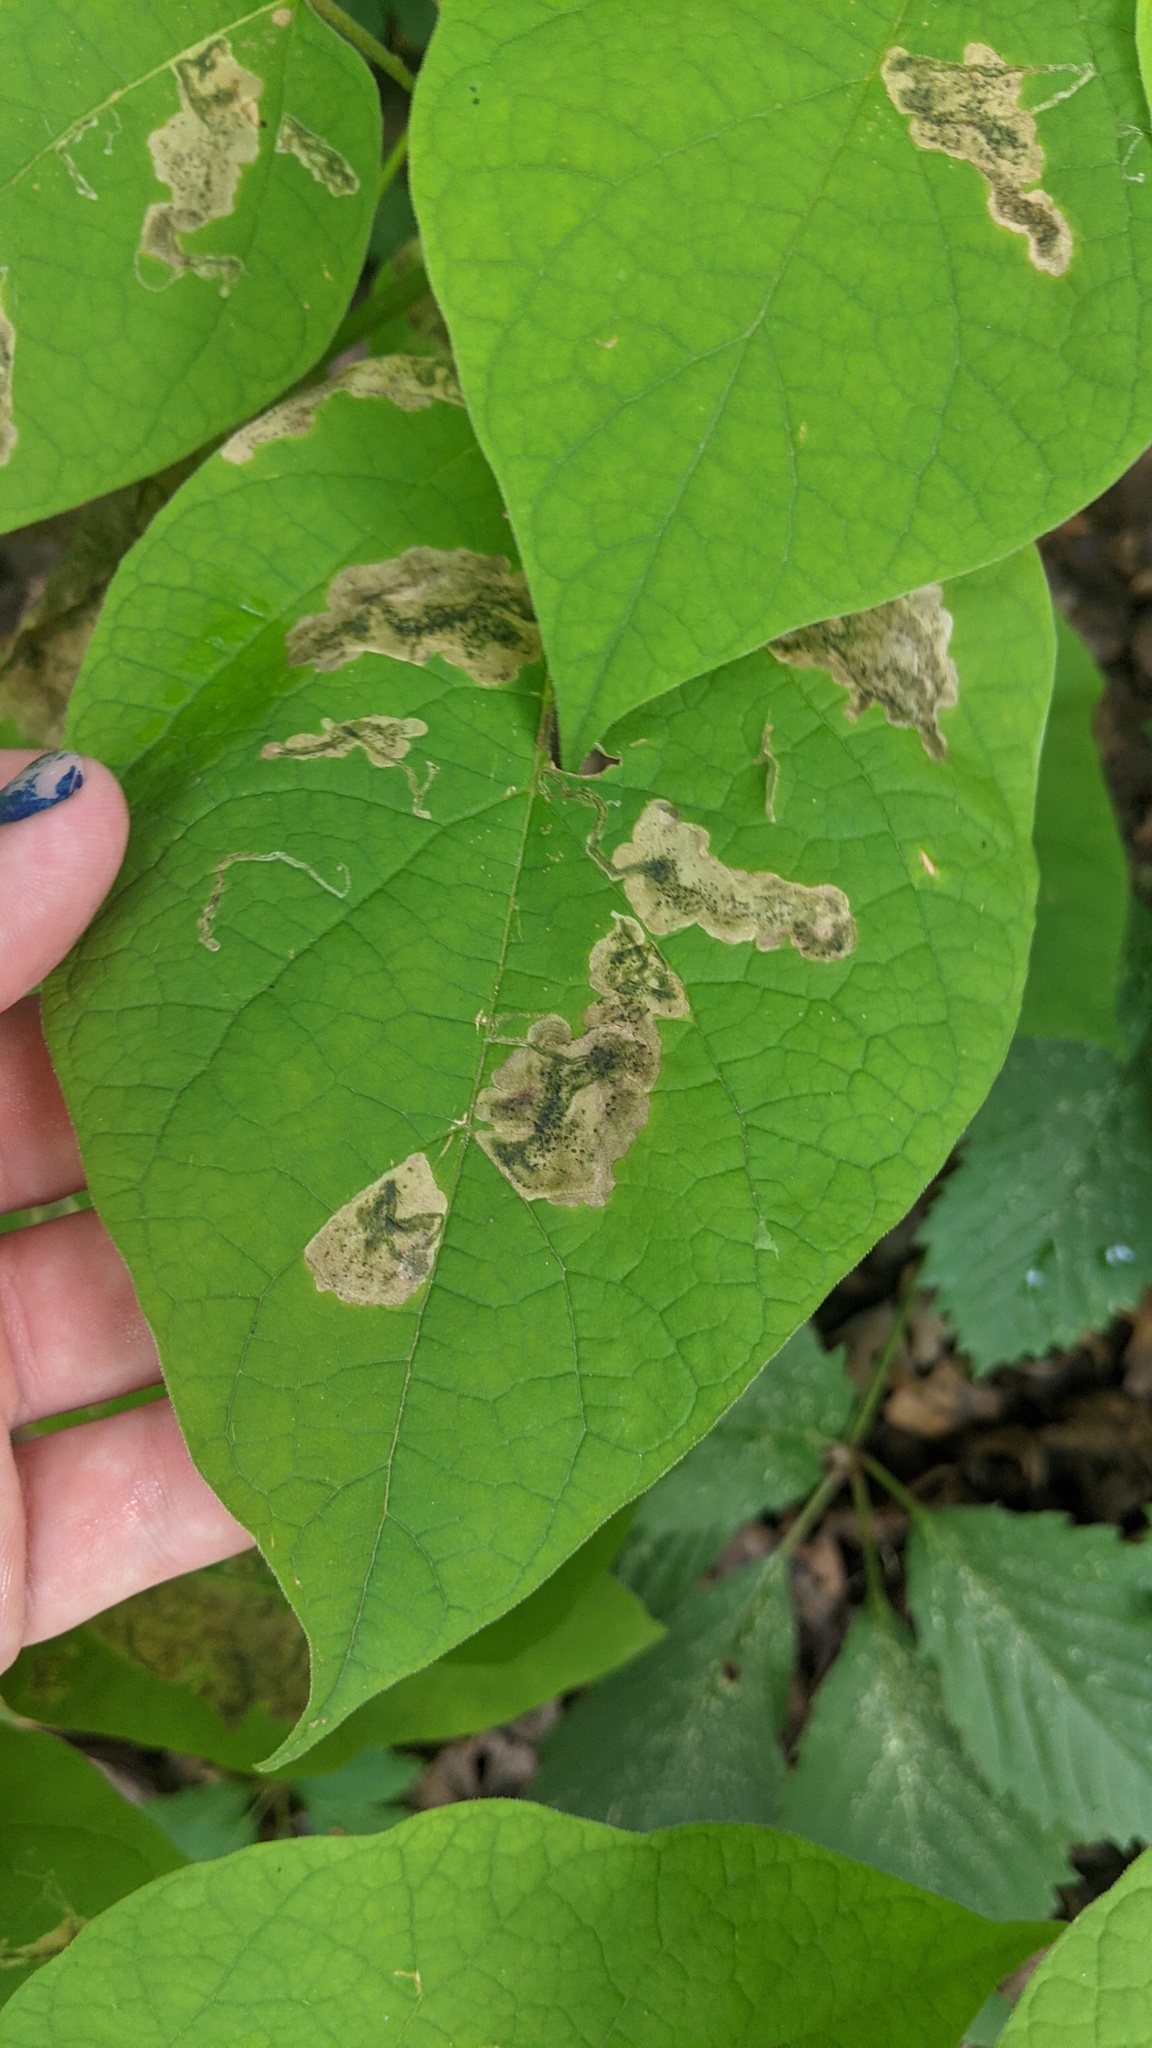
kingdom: Animalia
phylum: Arthropoda
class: Insecta
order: Diptera
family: Agromyzidae
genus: Amauromyza
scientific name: Amauromyza pleuralis
